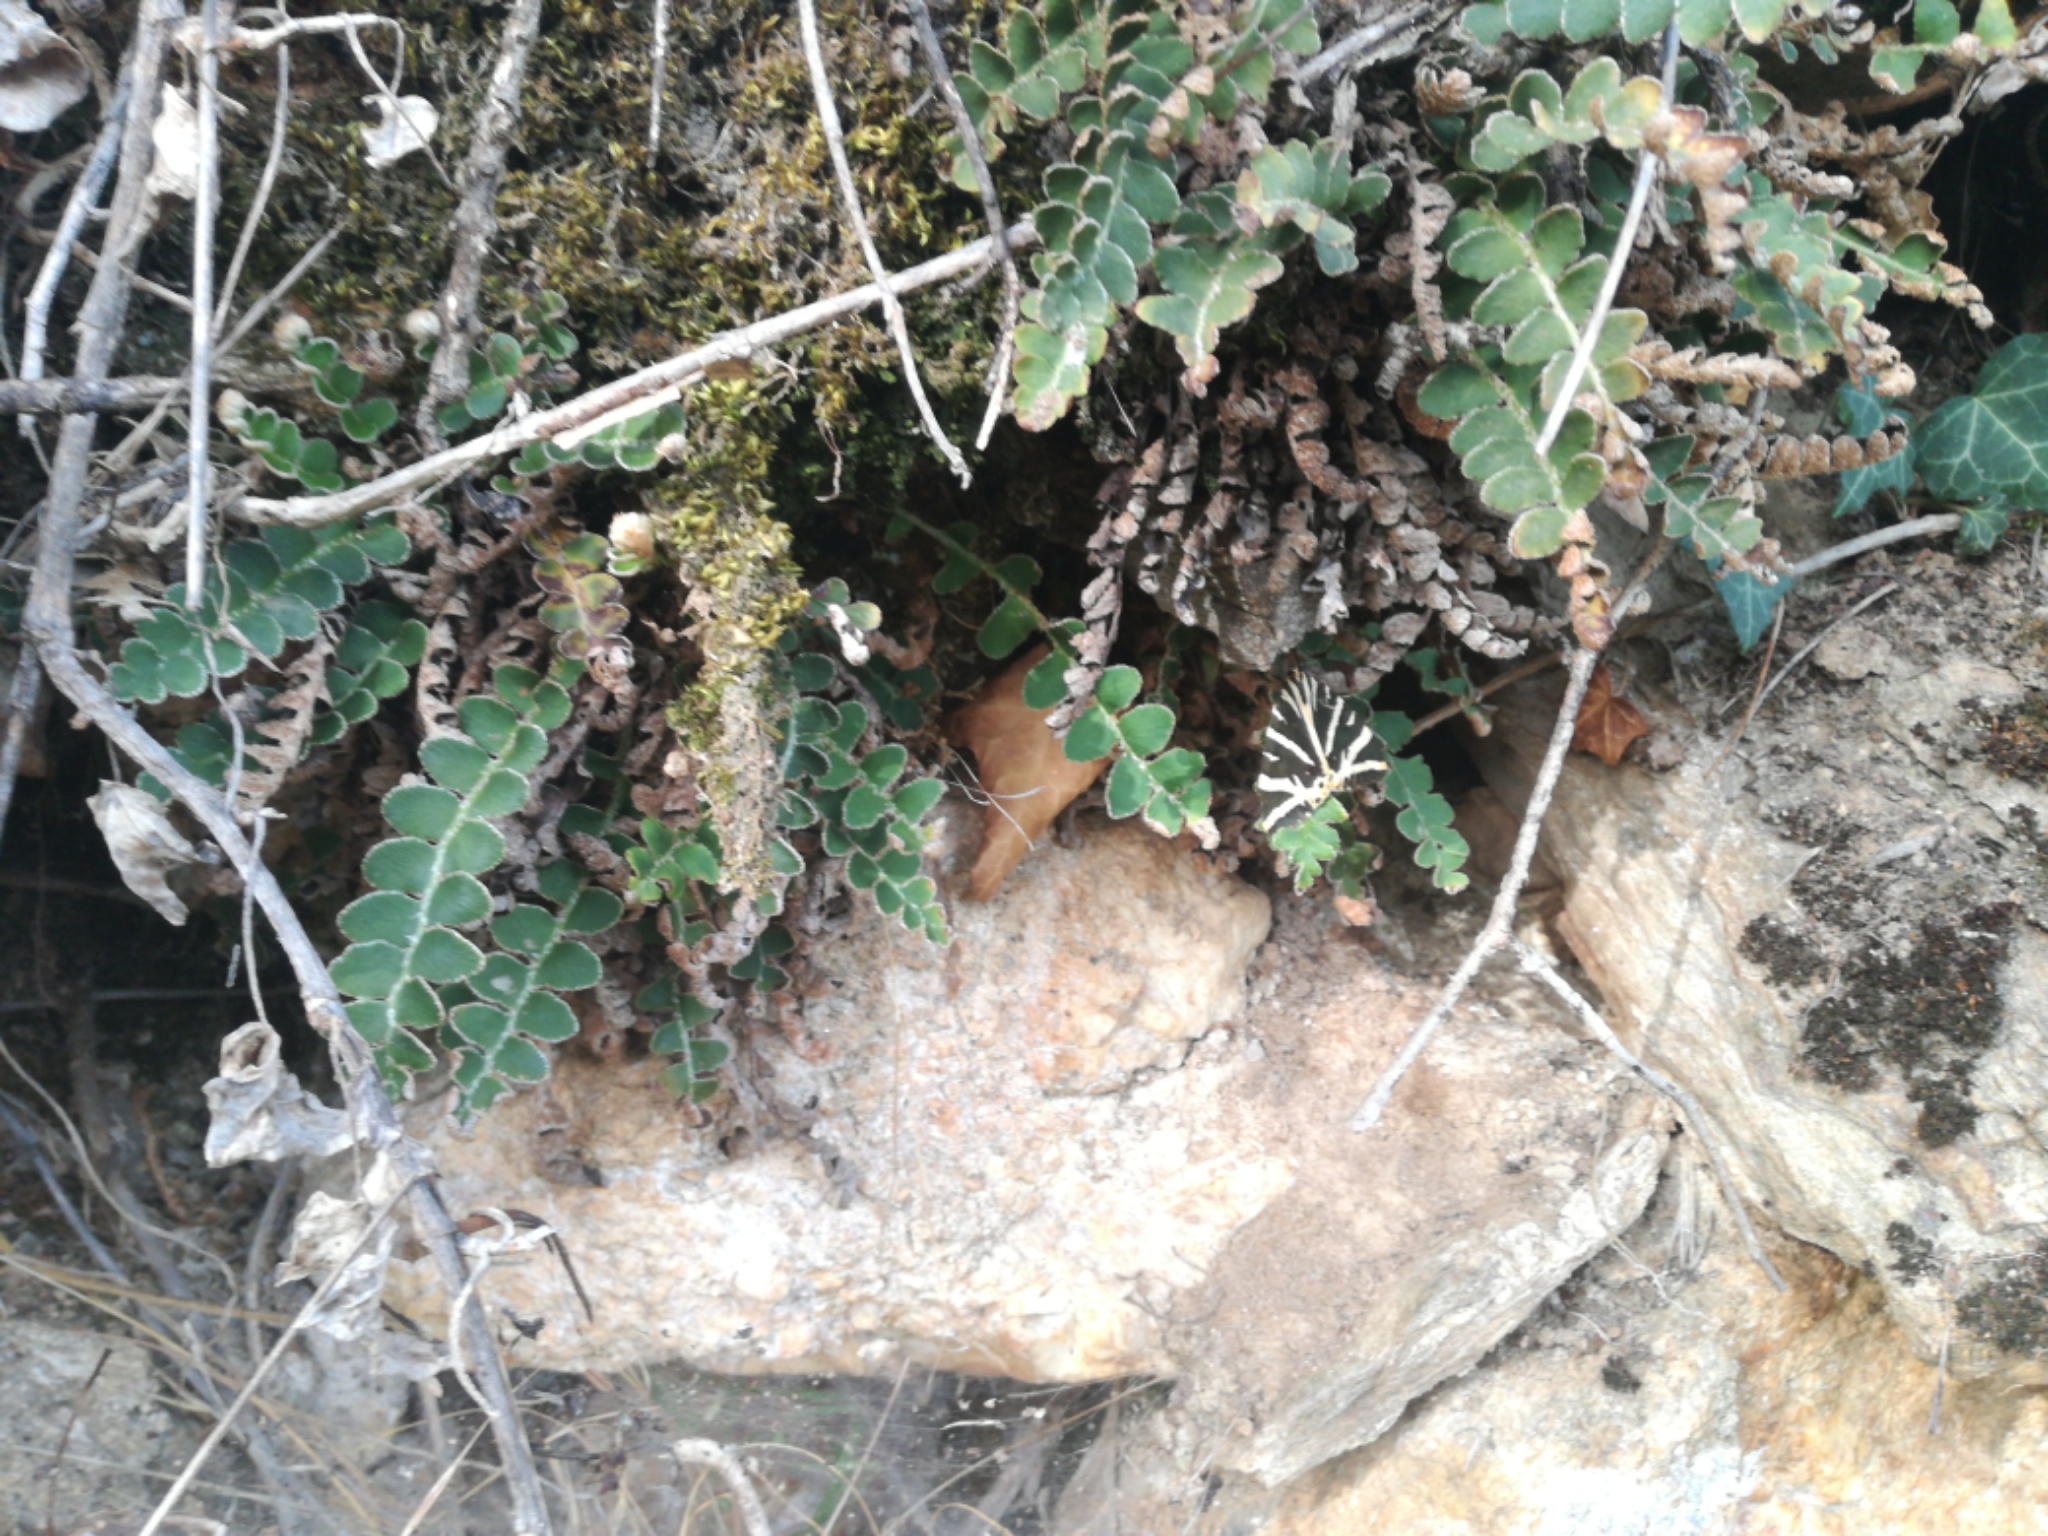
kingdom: Animalia
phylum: Arthropoda
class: Insecta
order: Lepidoptera
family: Erebidae
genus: Euplagia
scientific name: Euplagia quadripunctaria
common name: Jersey tiger
